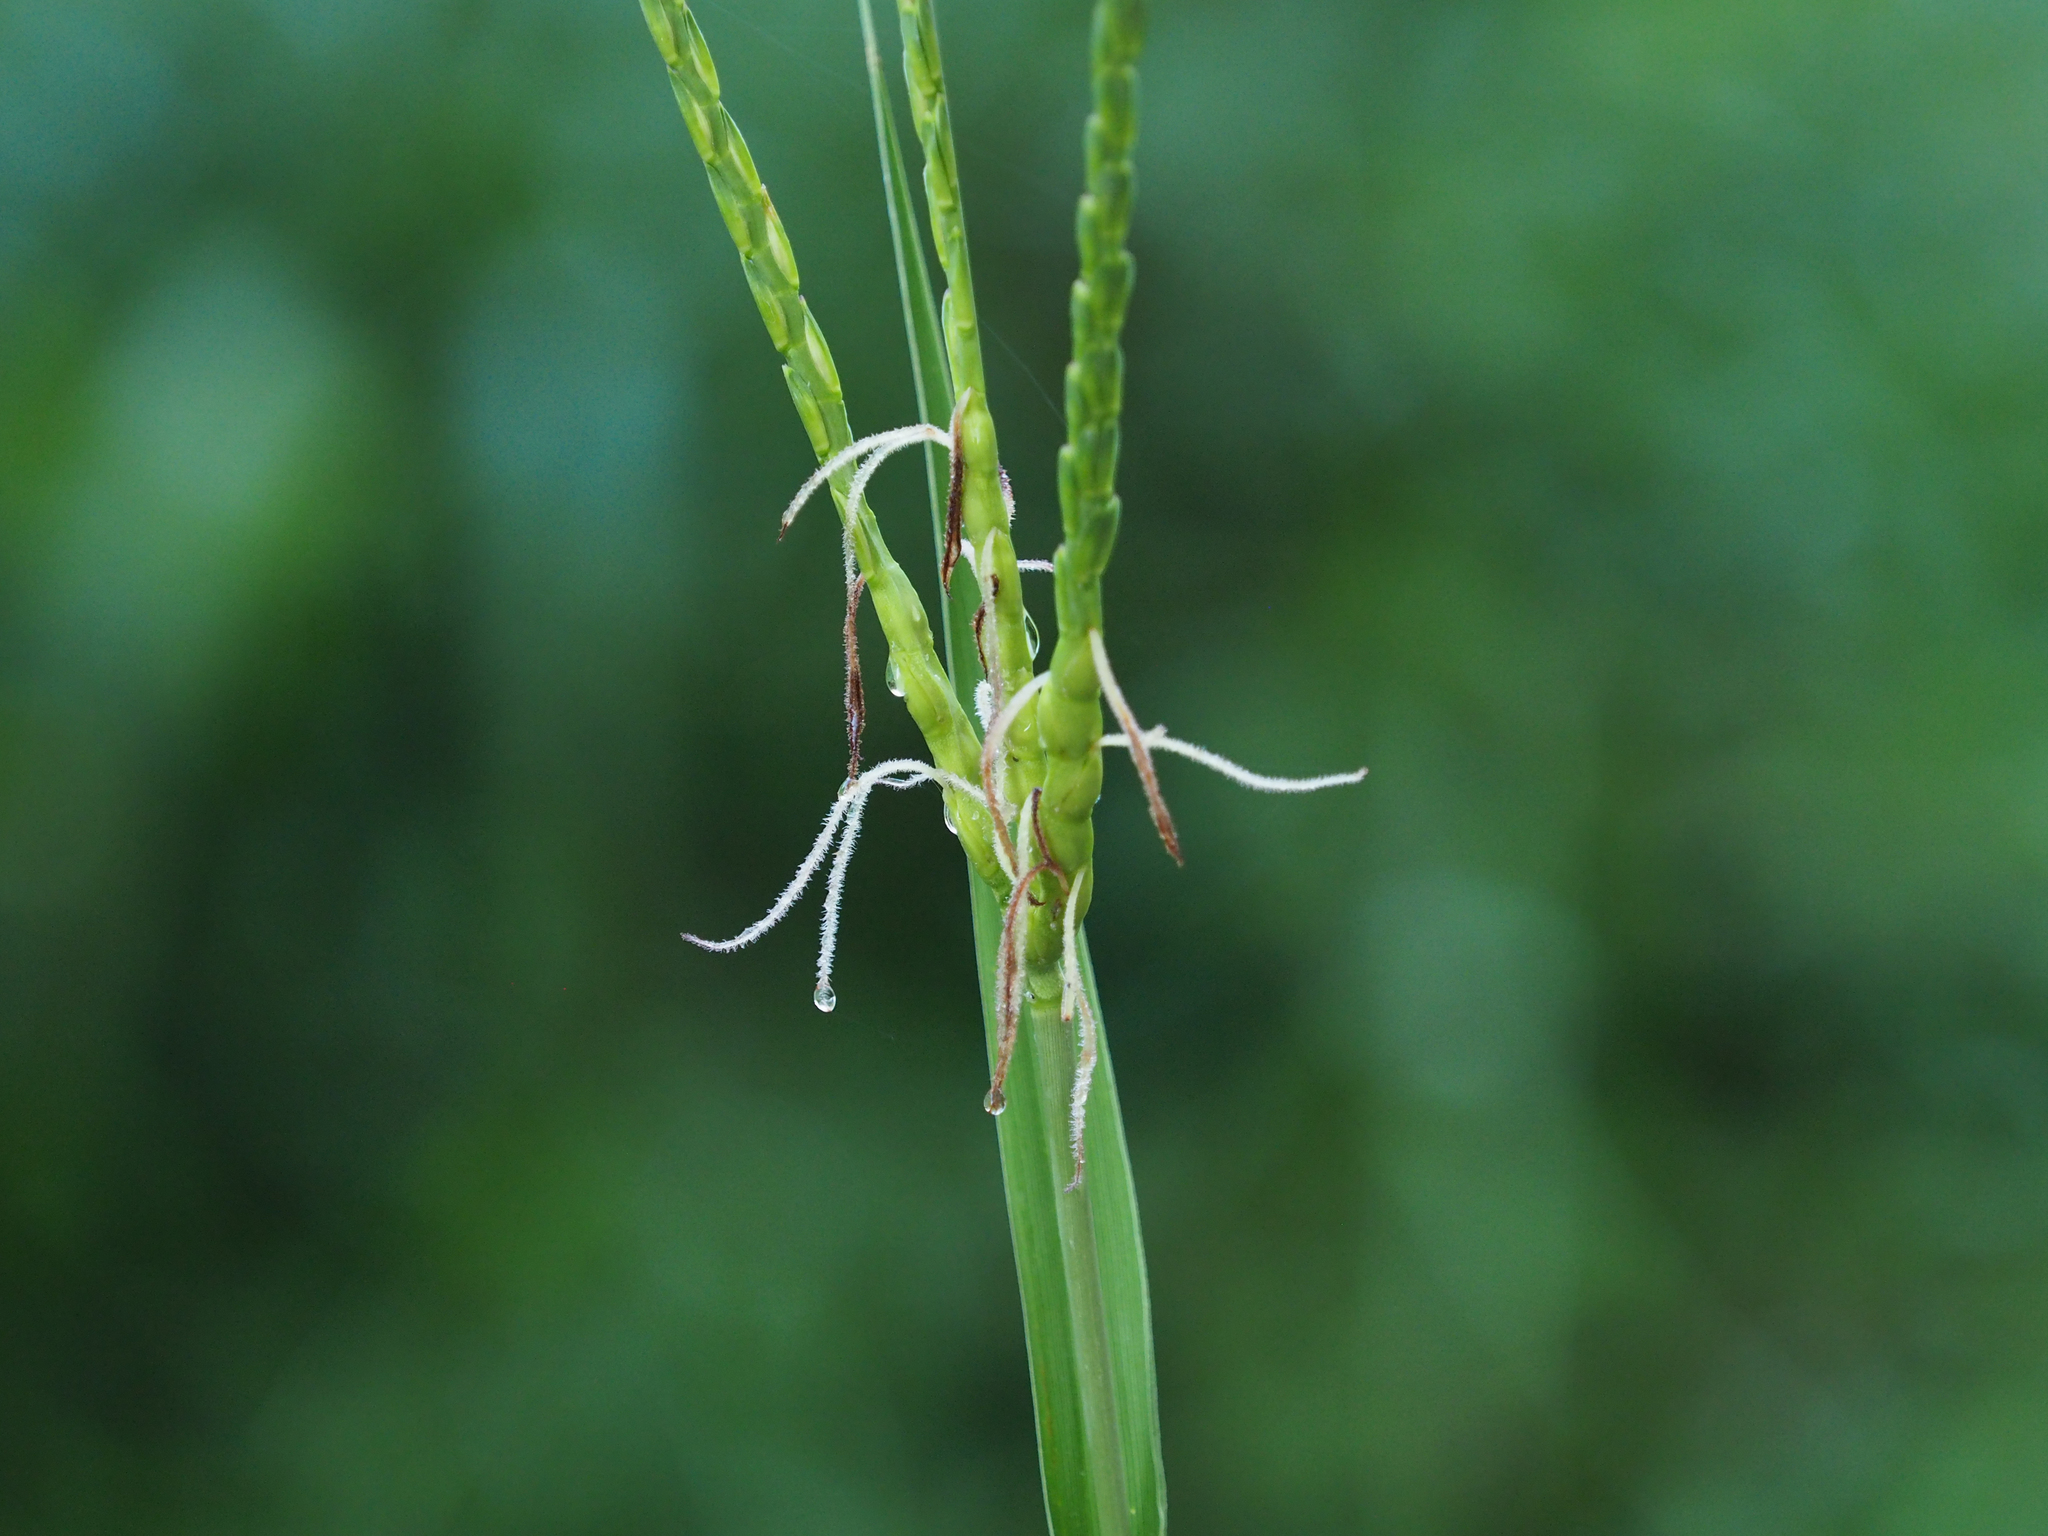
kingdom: Plantae
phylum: Tracheophyta
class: Liliopsida
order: Poales
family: Poaceae
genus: Tripsacum
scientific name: Tripsacum dactyloides
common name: Buffalo-grass
